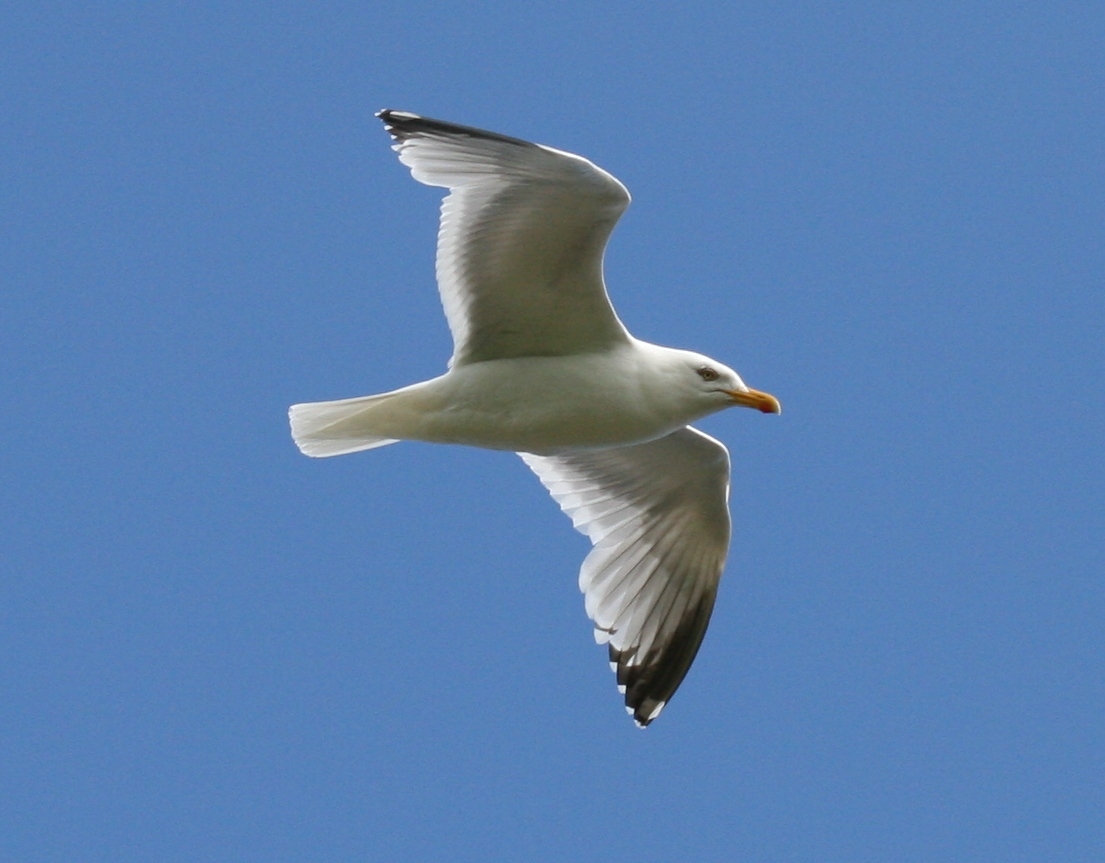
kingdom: Animalia
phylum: Chordata
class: Aves
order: Charadriiformes
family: Laridae
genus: Larus
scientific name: Larus argentatus
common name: Herring gull
